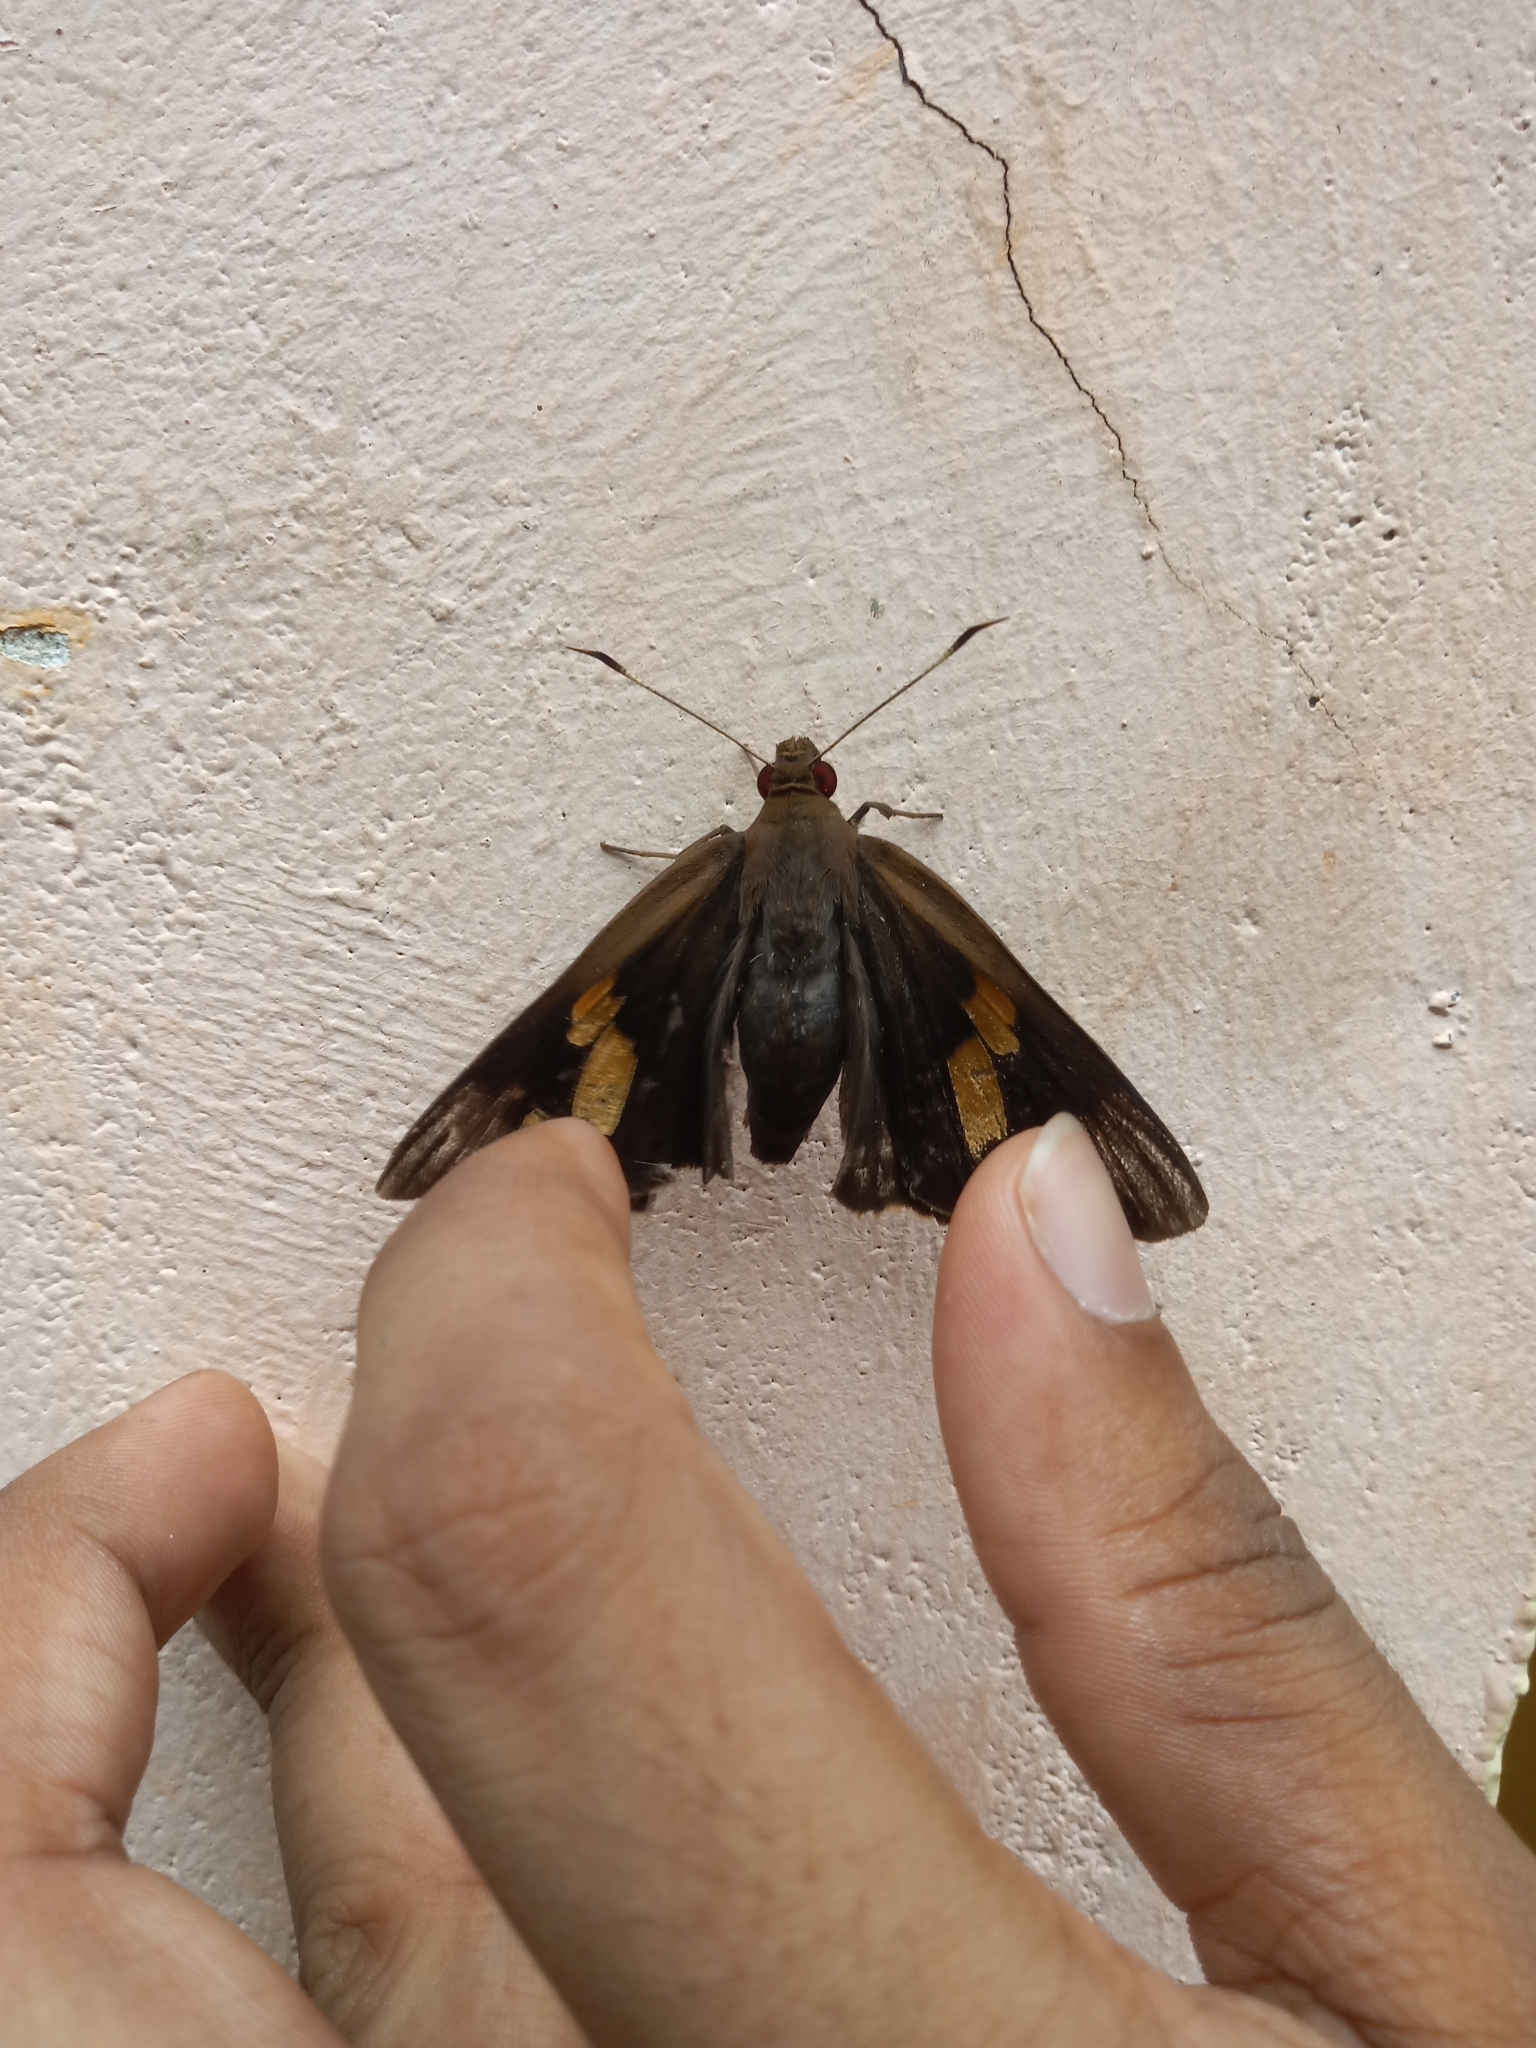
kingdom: Animalia
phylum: Arthropoda
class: Insecta
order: Lepidoptera
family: Hesperiidae
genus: Erionota
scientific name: Erionota torus
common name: Rounded palm-redeye
